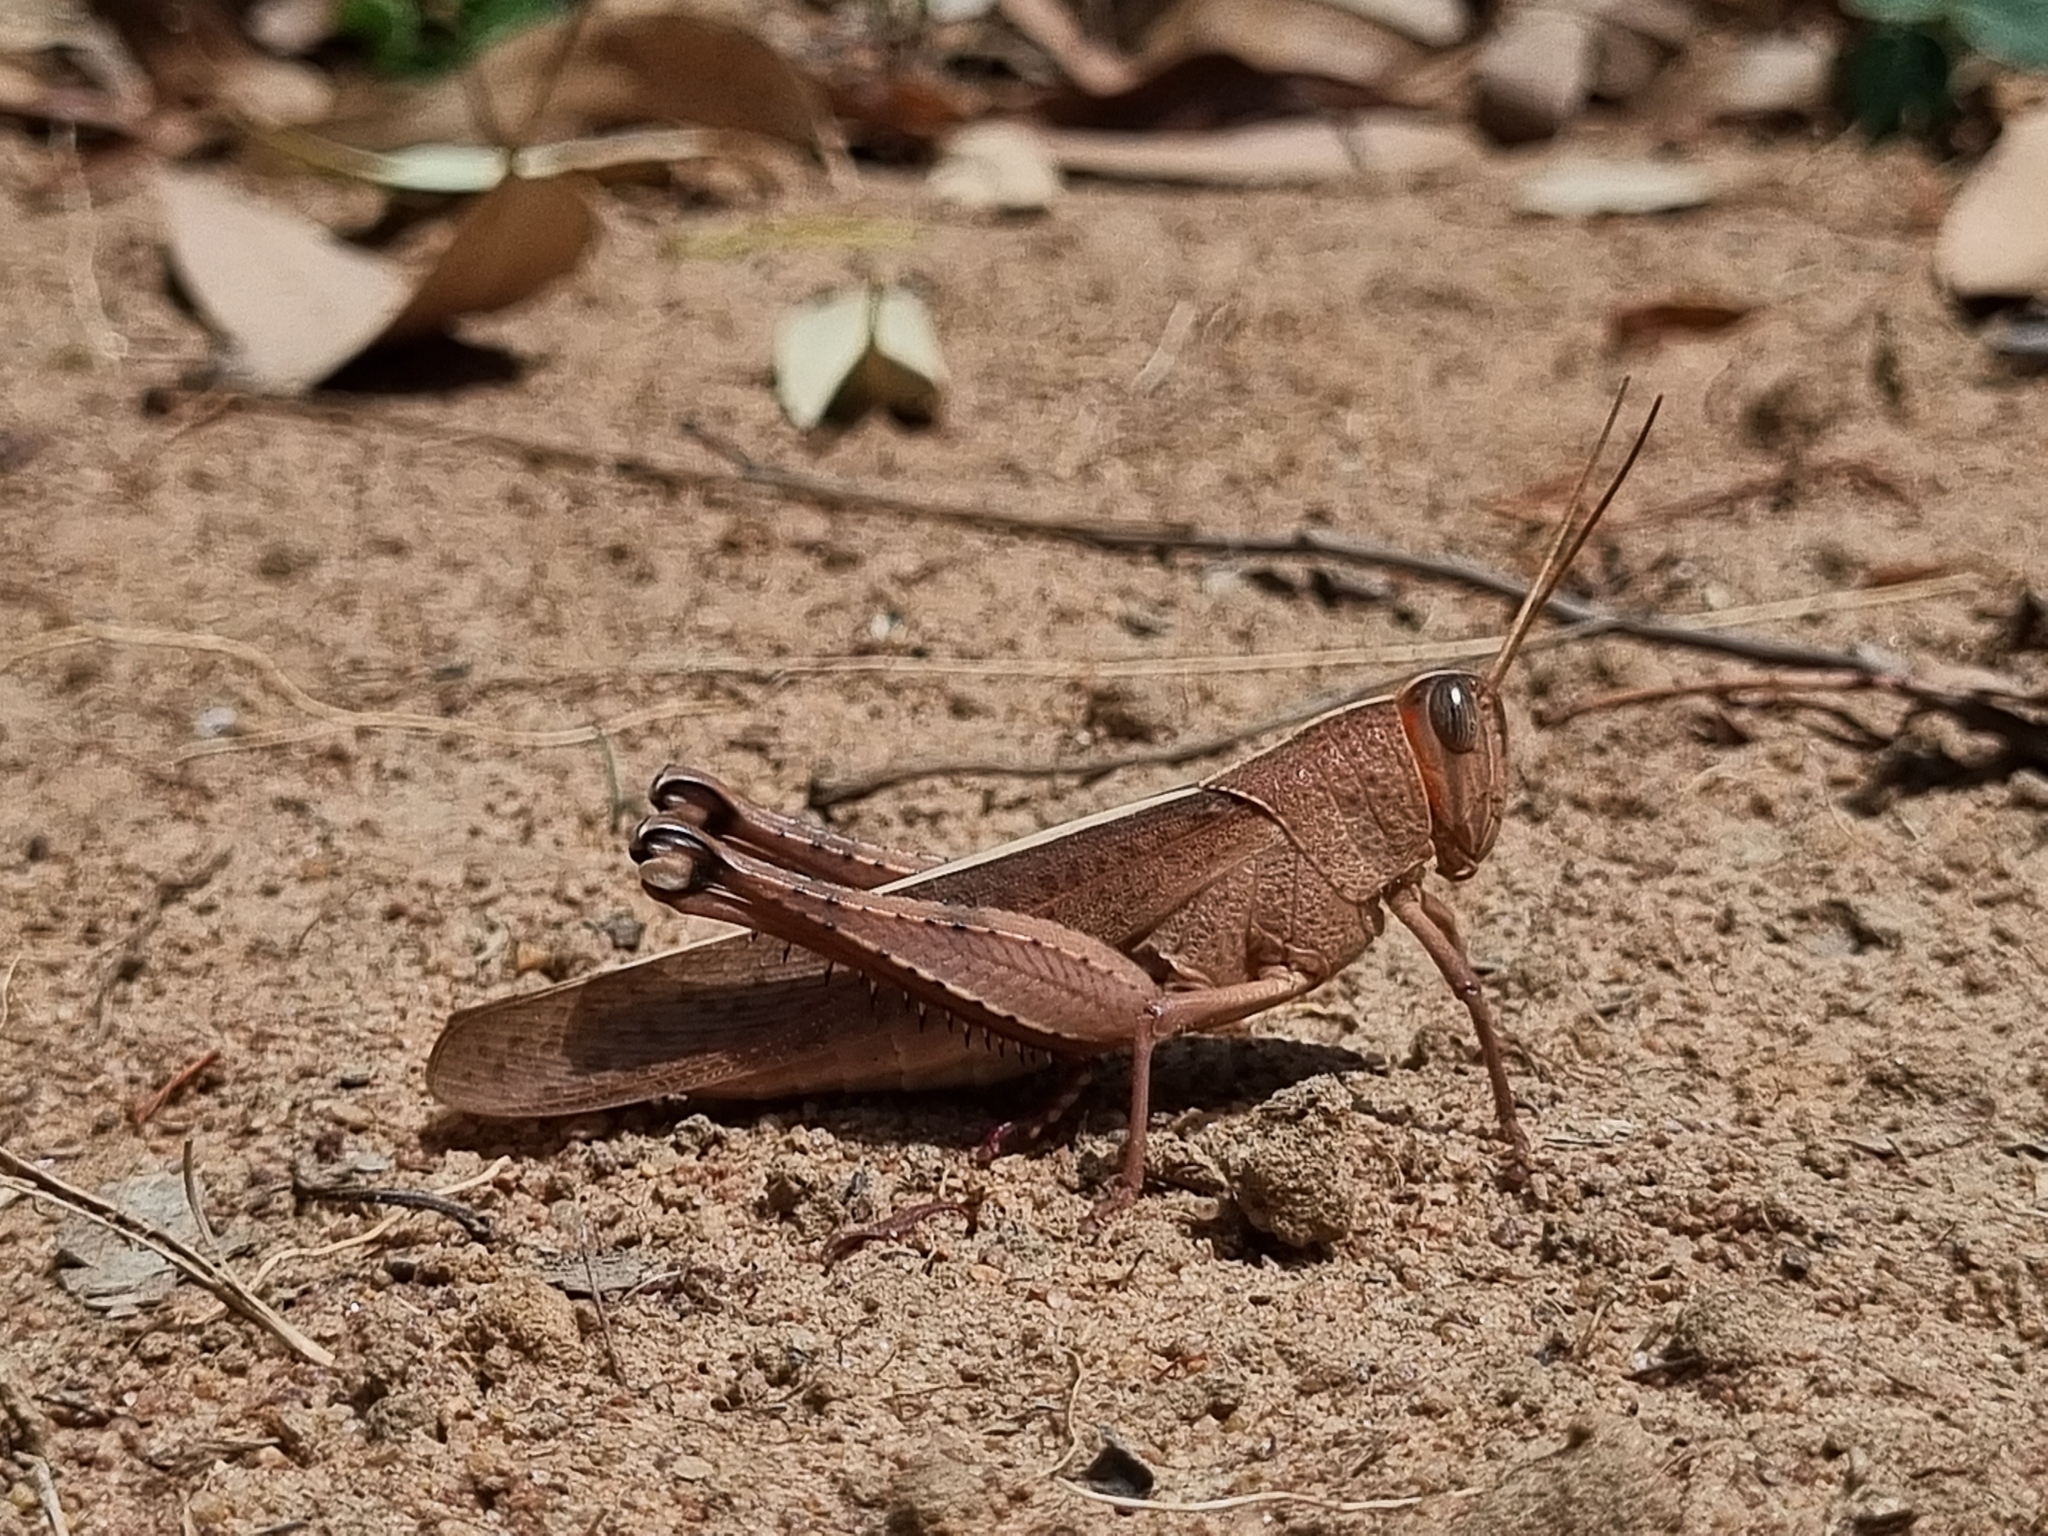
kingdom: Animalia
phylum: Arthropoda
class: Insecta
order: Orthoptera
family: Acrididae
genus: Pachyacris
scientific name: Pachyacris violascens
